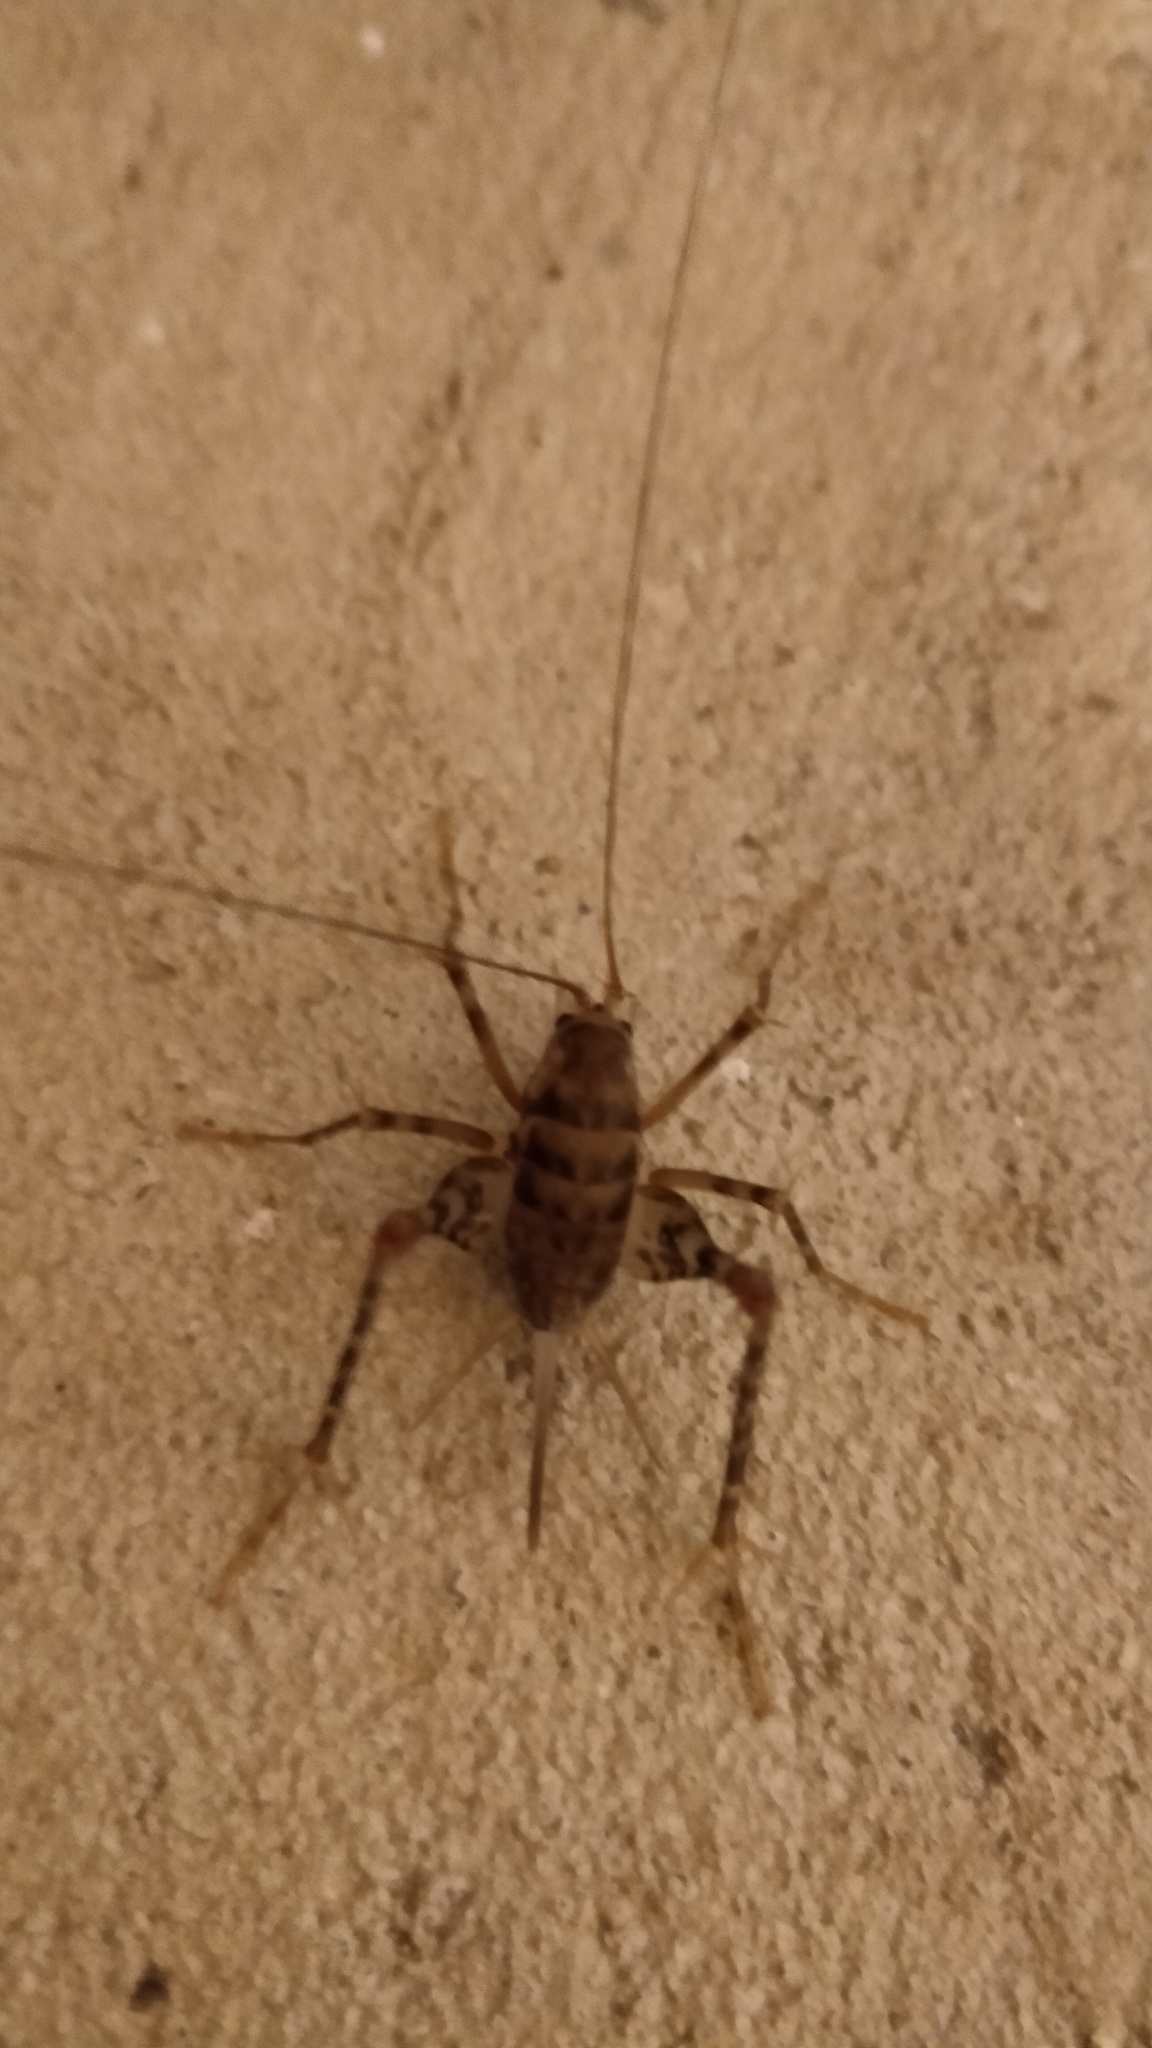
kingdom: Animalia
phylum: Arthropoda
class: Insecta
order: Orthoptera
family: Rhaphidophoridae
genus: Tachycines
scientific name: Tachycines asynamorus
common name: Greenhouse camel cricket
